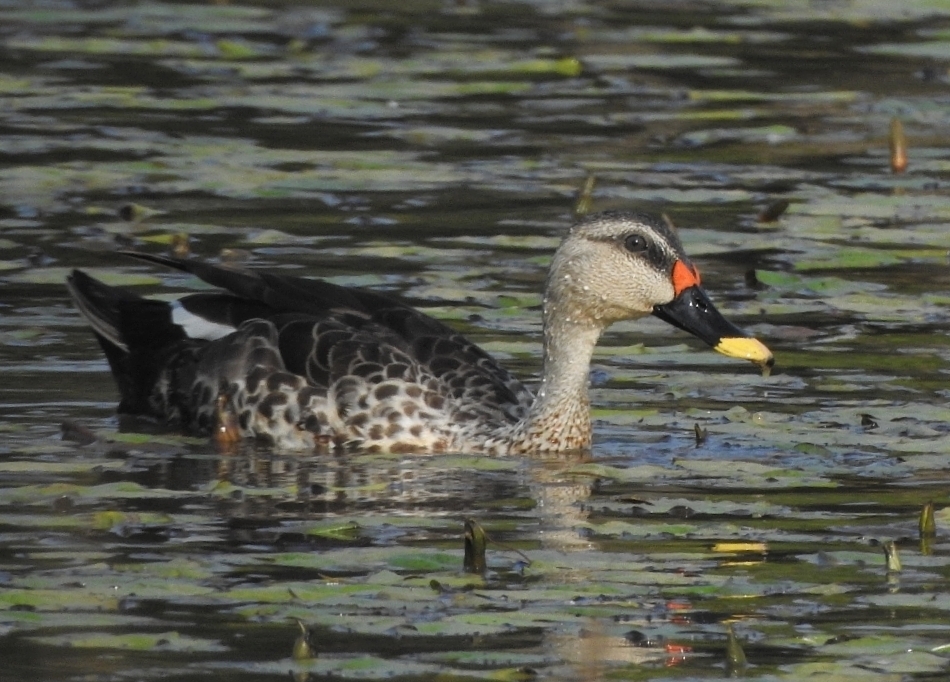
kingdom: Animalia
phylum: Chordata
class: Aves
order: Anseriformes
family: Anatidae
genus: Anas
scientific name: Anas poecilorhyncha
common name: Indian spot-billed duck
